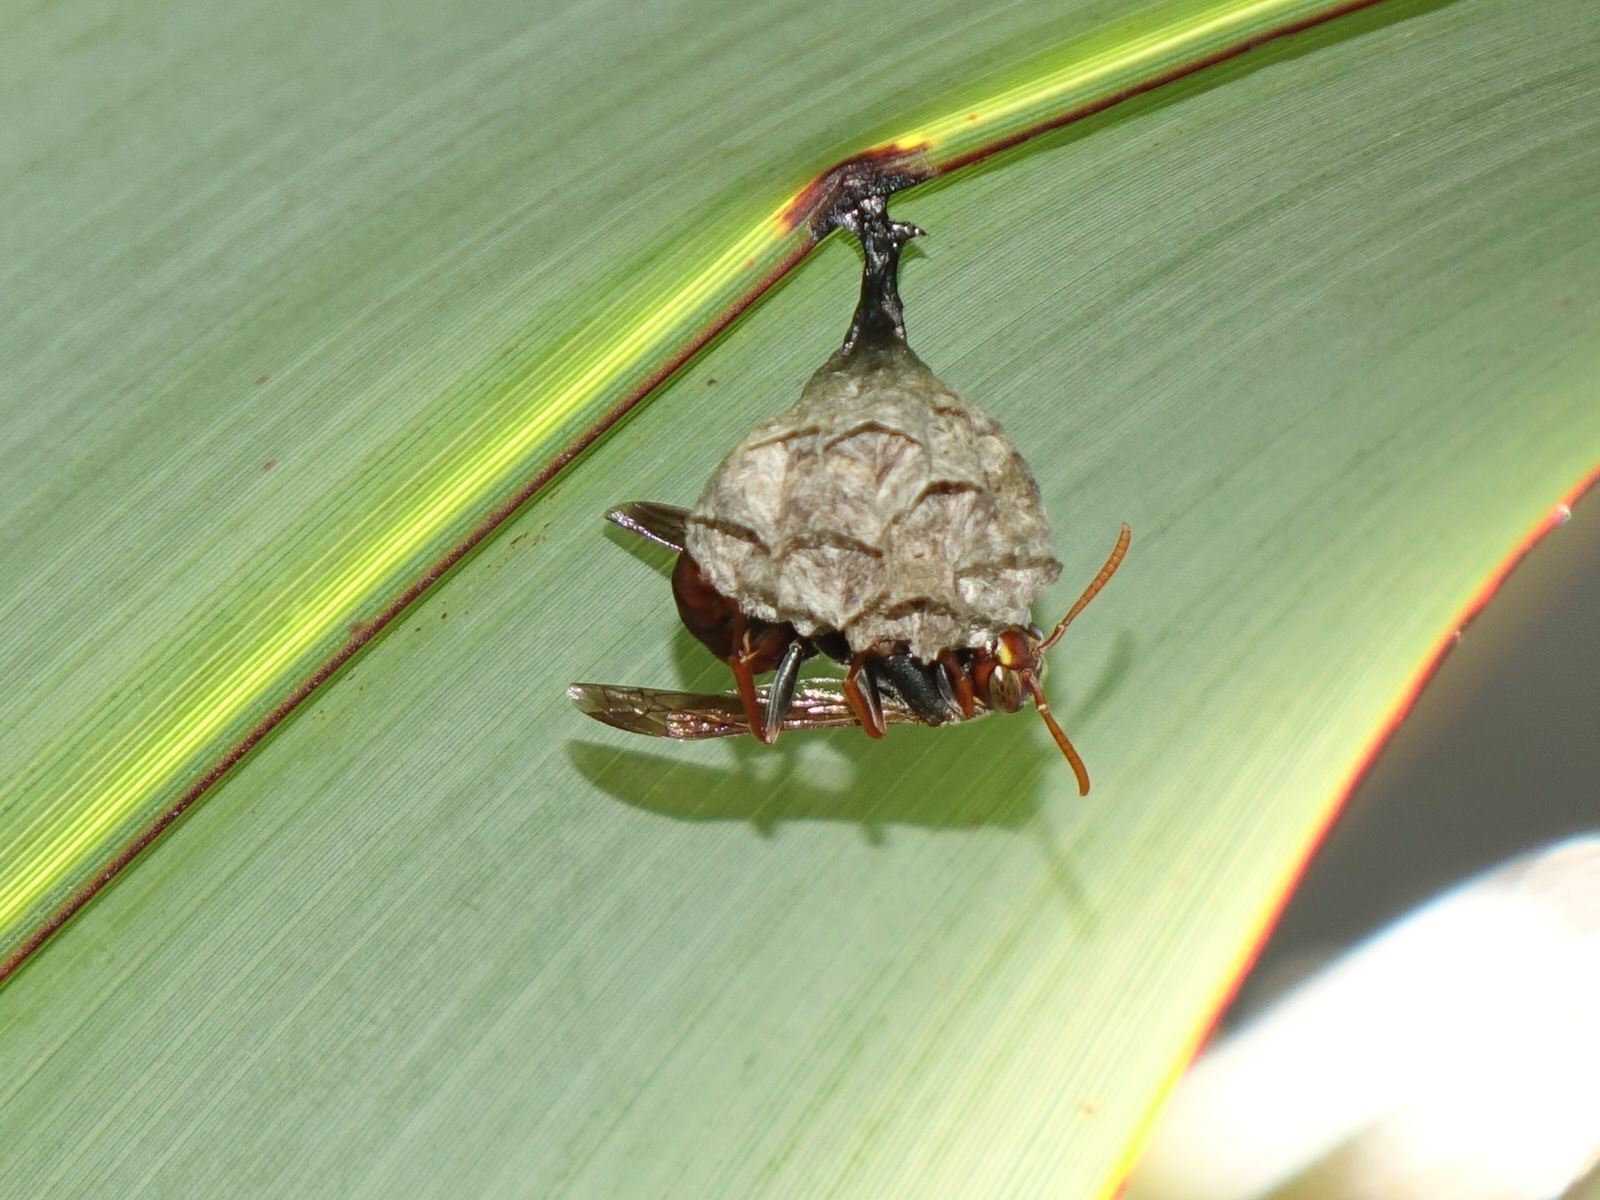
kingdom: Animalia
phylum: Arthropoda
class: Insecta
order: Hymenoptera
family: Eumenidae
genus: Polistes
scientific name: Polistes humilis
